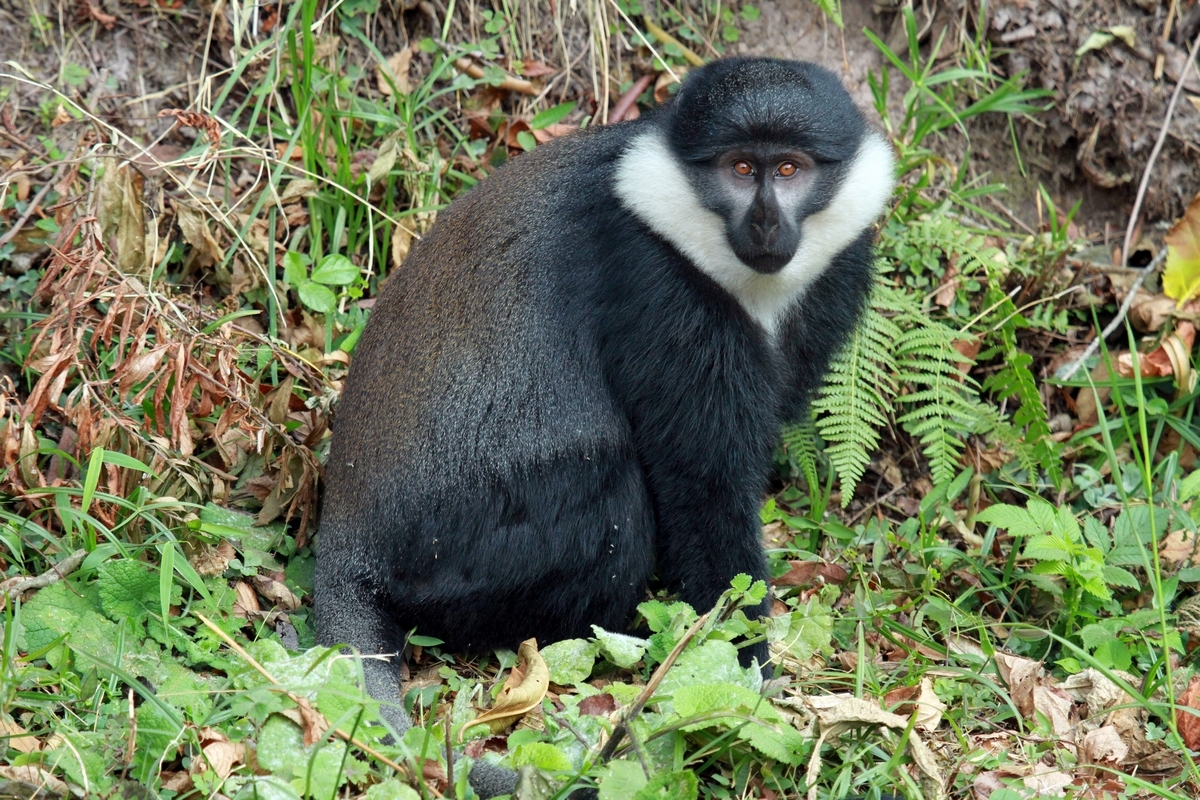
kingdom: Animalia
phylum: Chordata
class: Mammalia
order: Primates
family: Cercopithecidae
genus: Allochrocebus
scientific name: Allochrocebus lhoesti
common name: L'hoest's monkey
